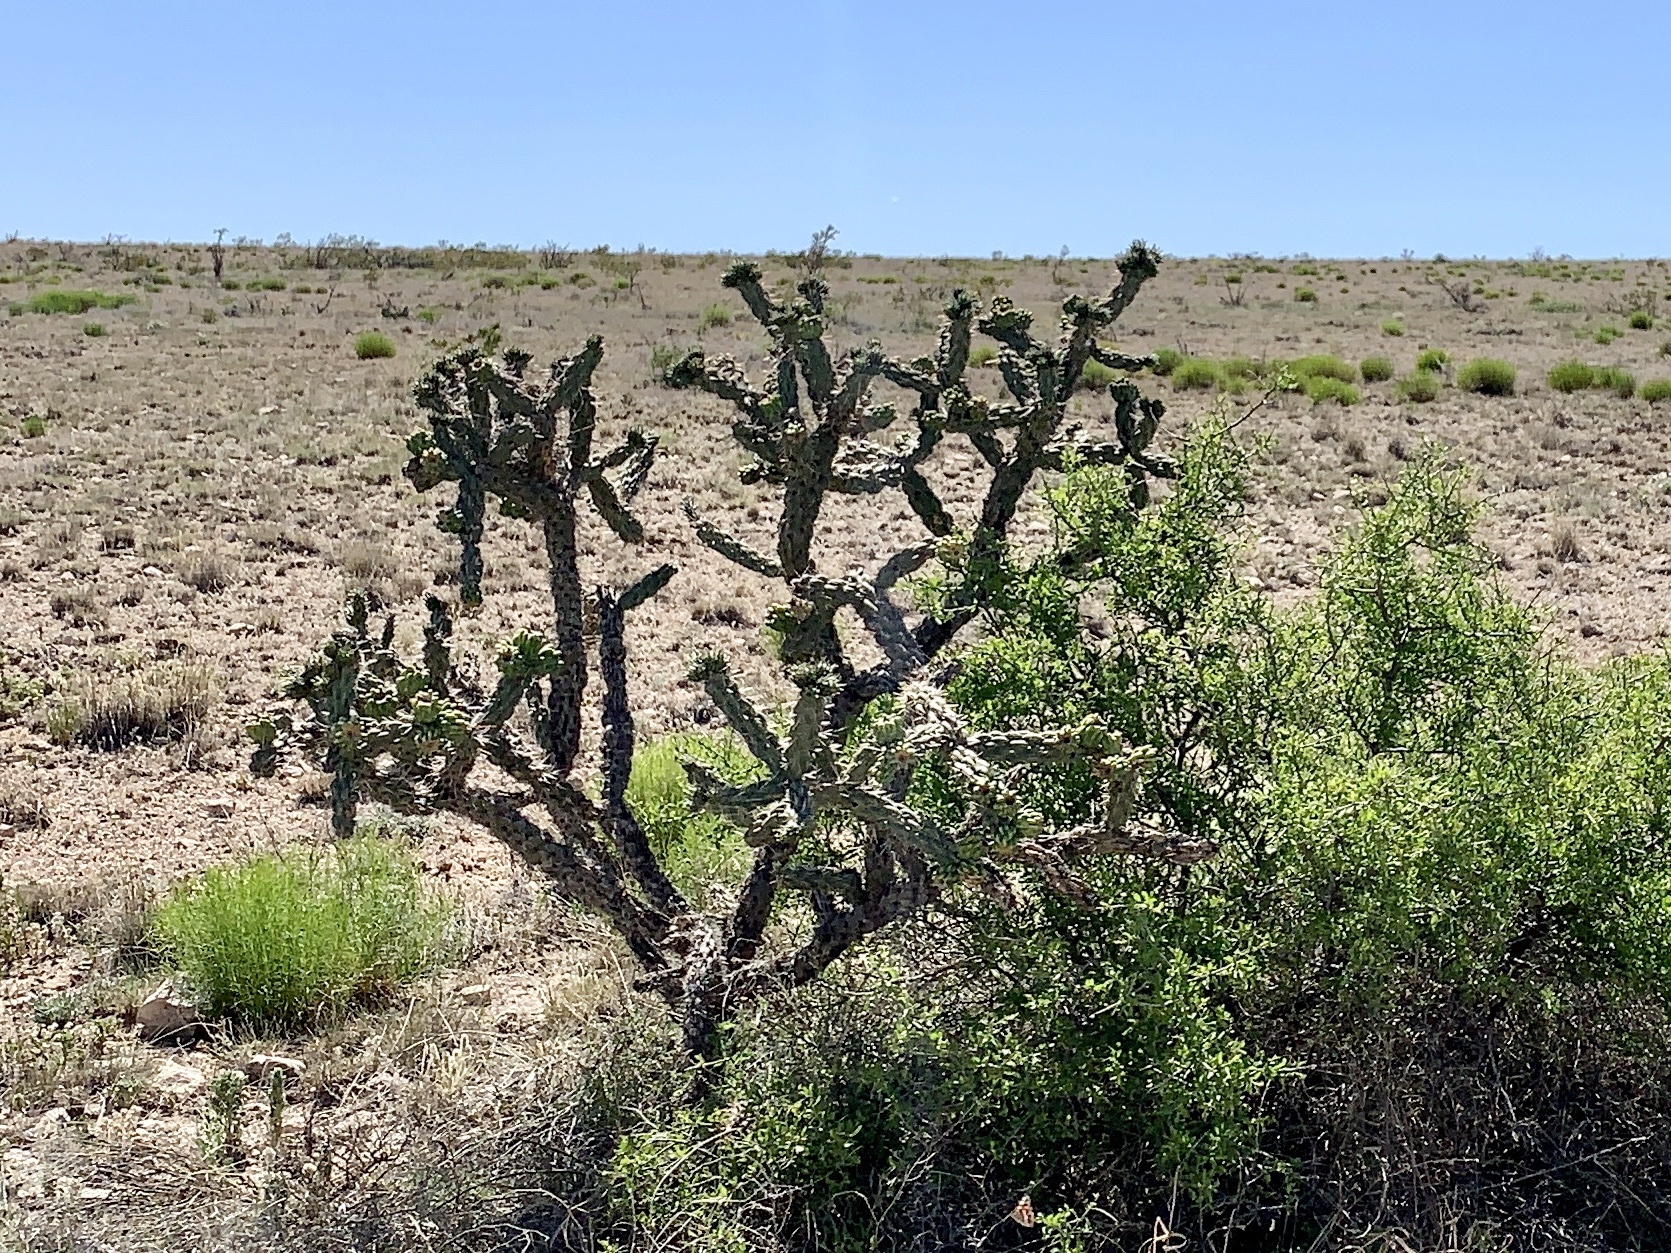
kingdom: Plantae
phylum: Tracheophyta
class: Magnoliopsida
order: Caryophyllales
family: Cactaceae
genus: Cylindropuntia
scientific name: Cylindropuntia imbricata
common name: Candelabrum cactus
